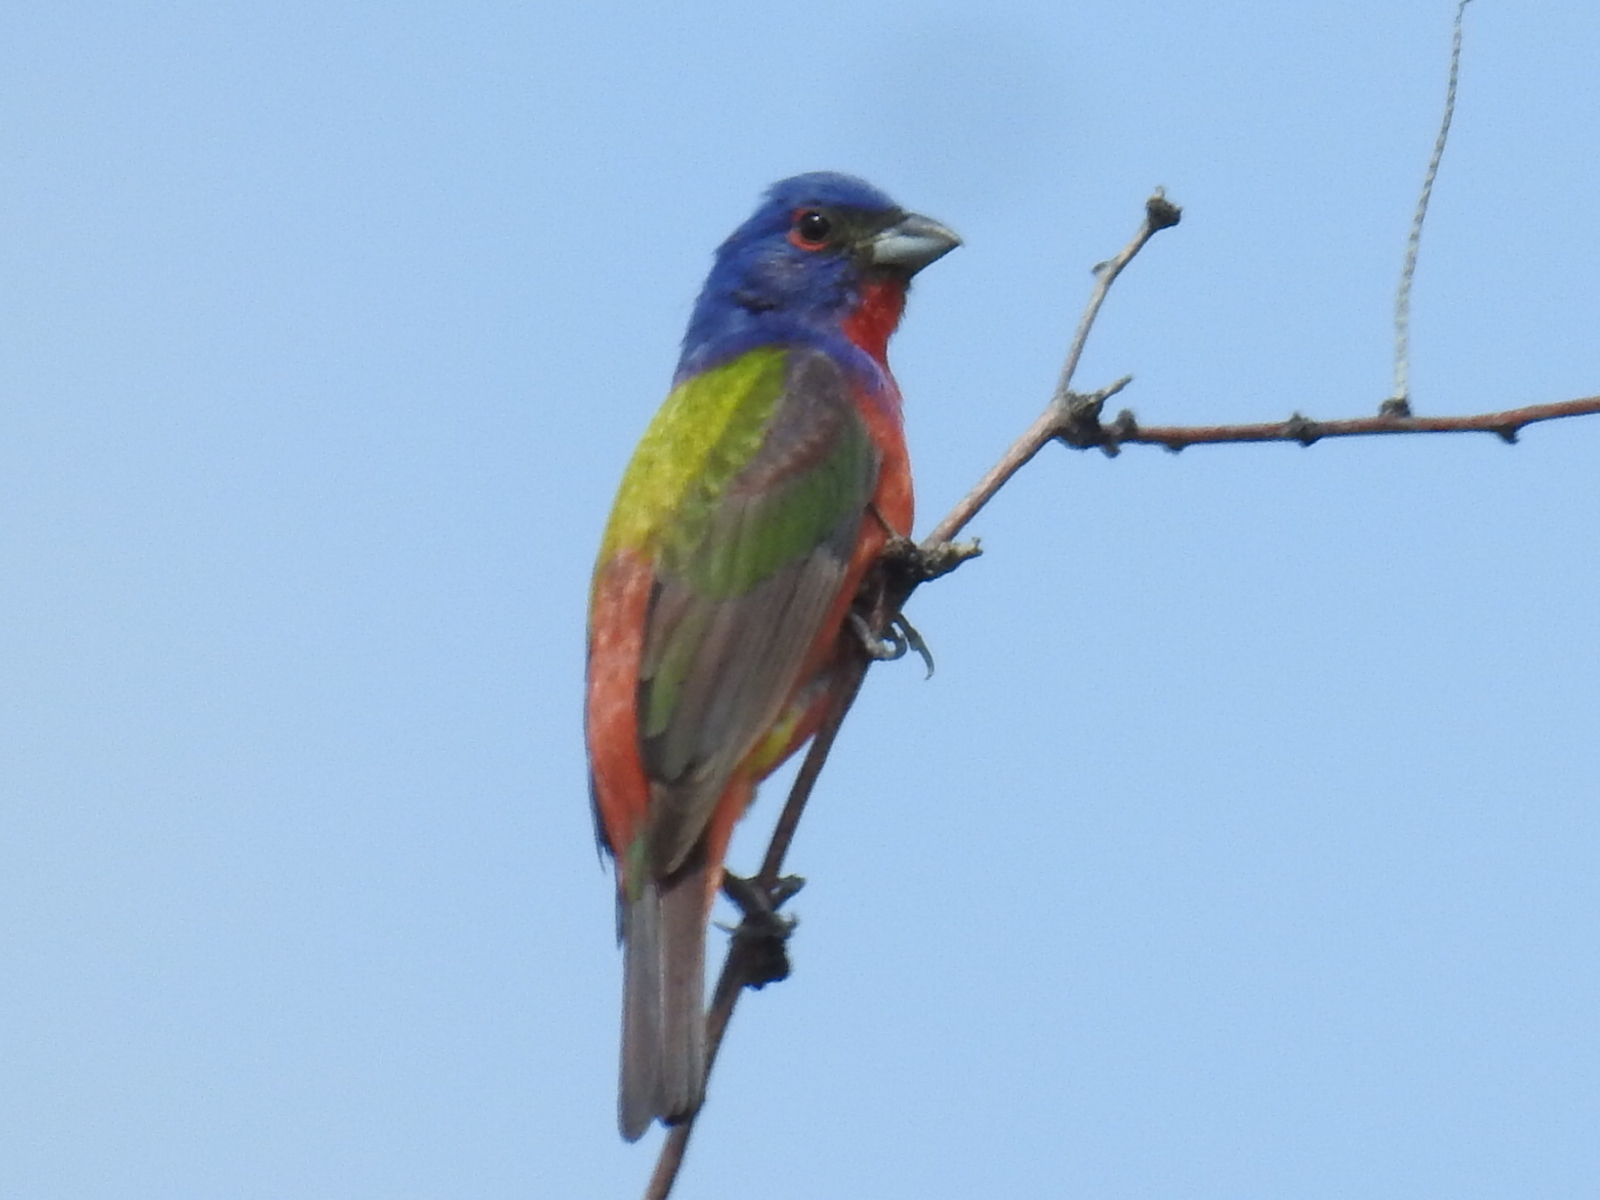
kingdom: Animalia
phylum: Chordata
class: Aves
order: Passeriformes
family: Cardinalidae
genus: Passerina
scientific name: Passerina ciris
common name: Painted bunting
